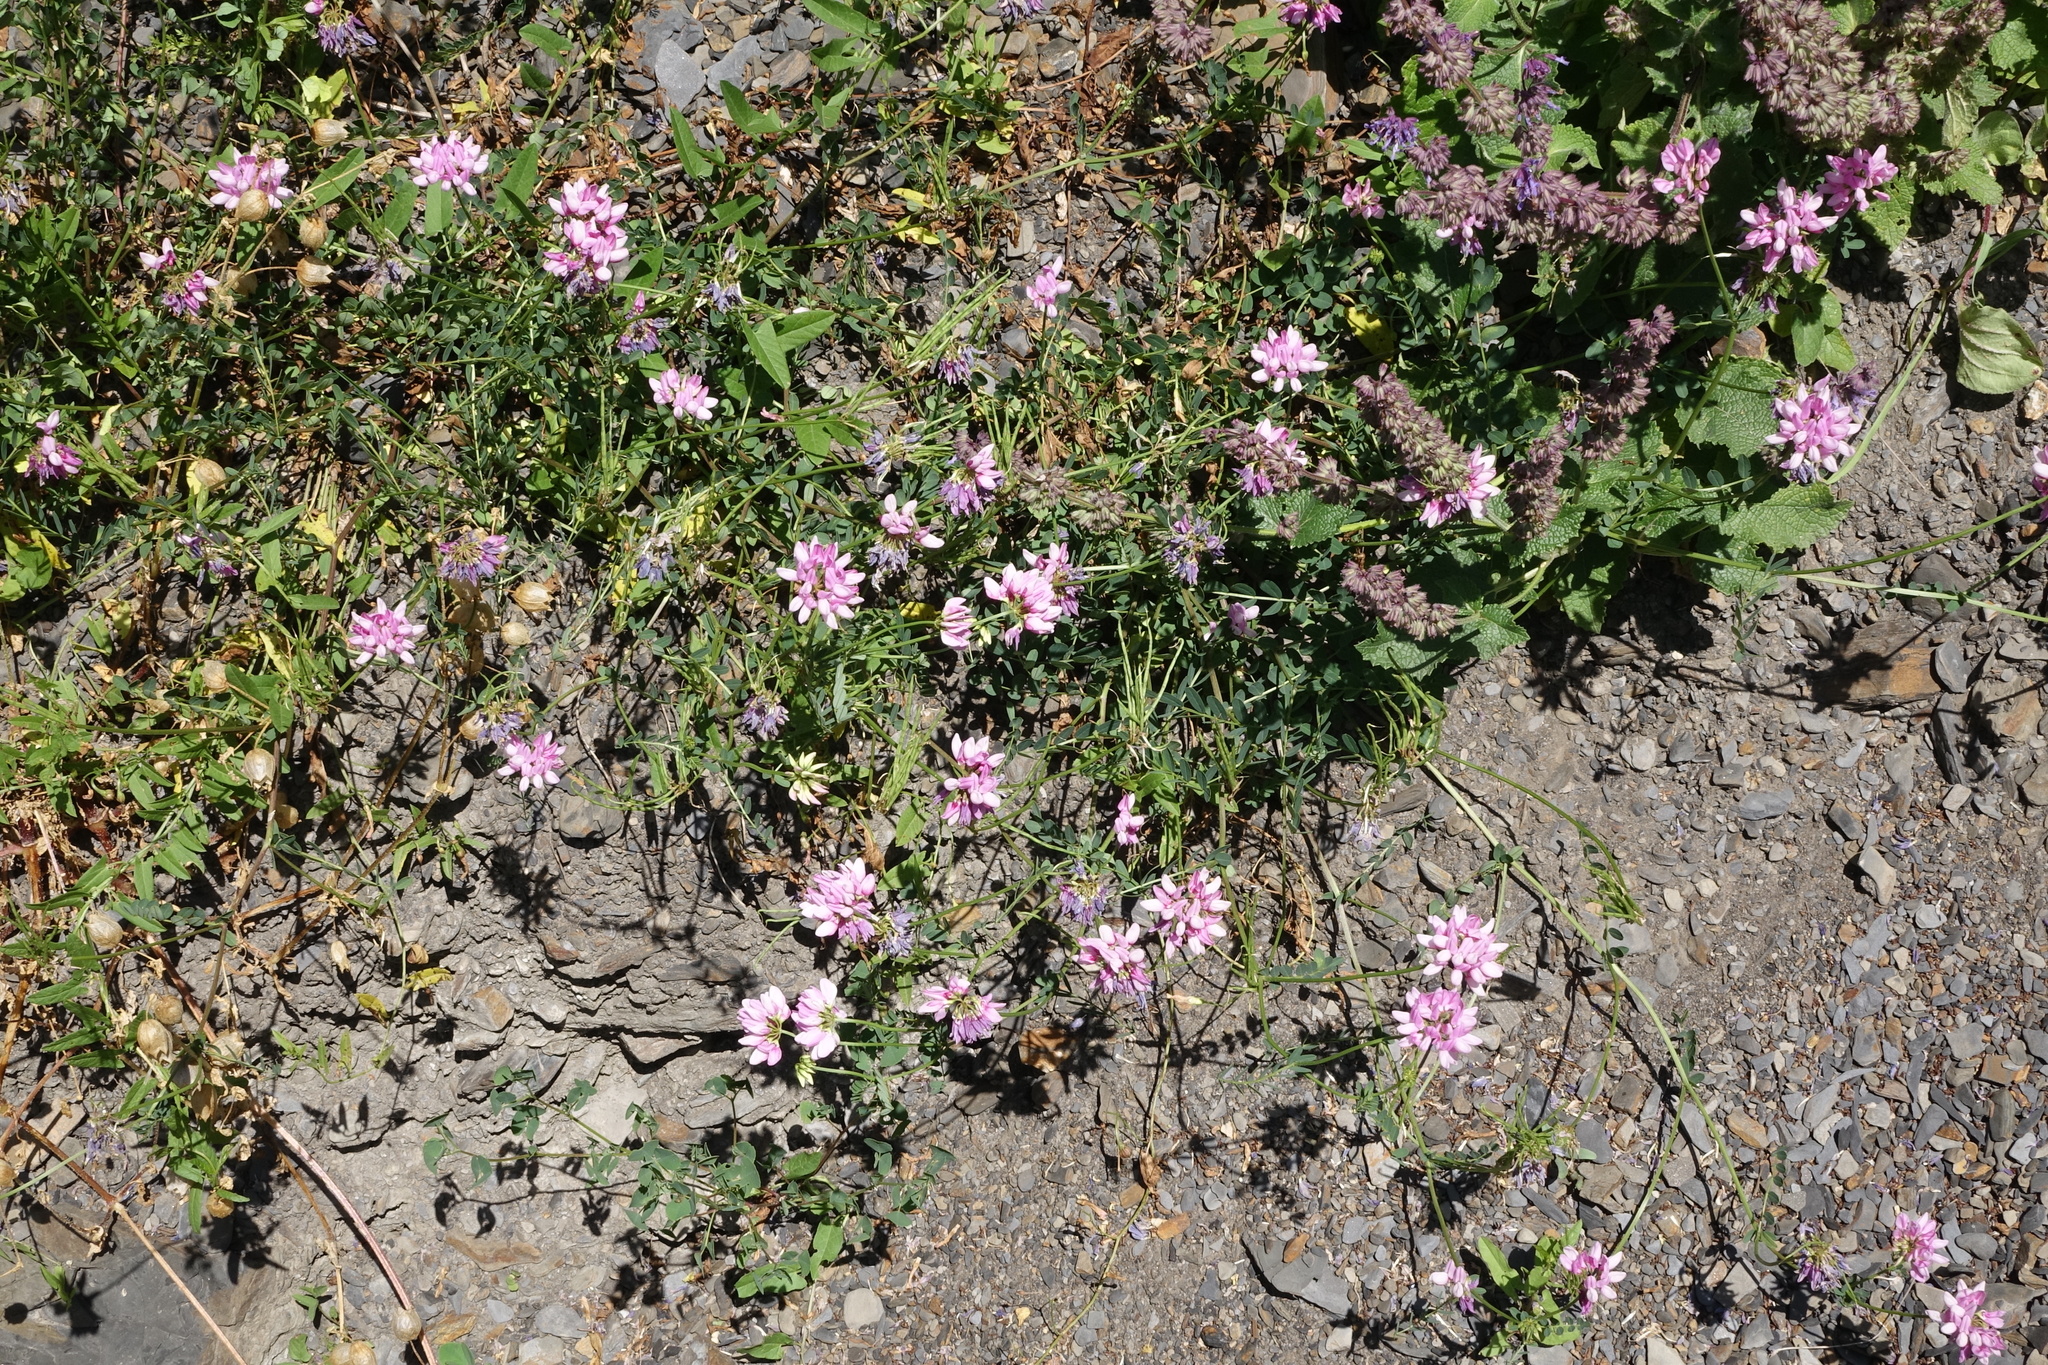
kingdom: Plantae
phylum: Tracheophyta
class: Magnoliopsida
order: Fabales
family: Fabaceae
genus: Coronilla
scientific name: Coronilla varia
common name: Crownvetch
